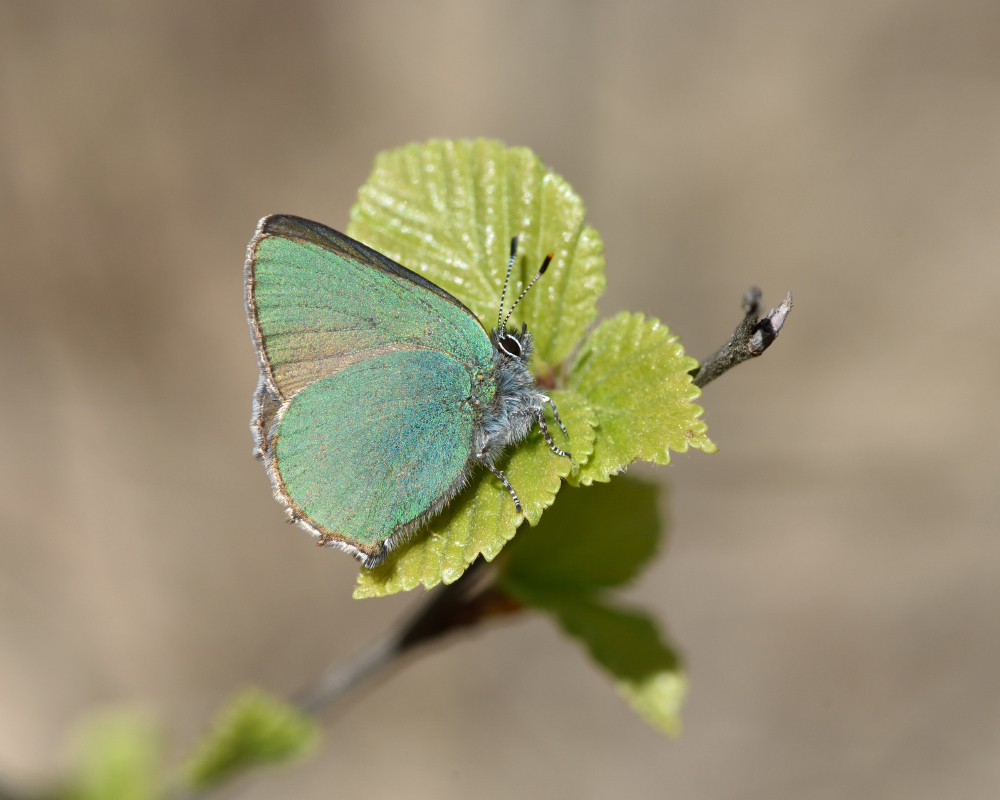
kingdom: Animalia
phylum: Arthropoda
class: Insecta
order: Lepidoptera
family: Lycaenidae
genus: Callophrys
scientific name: Callophrys rubi
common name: Green hairstreak
